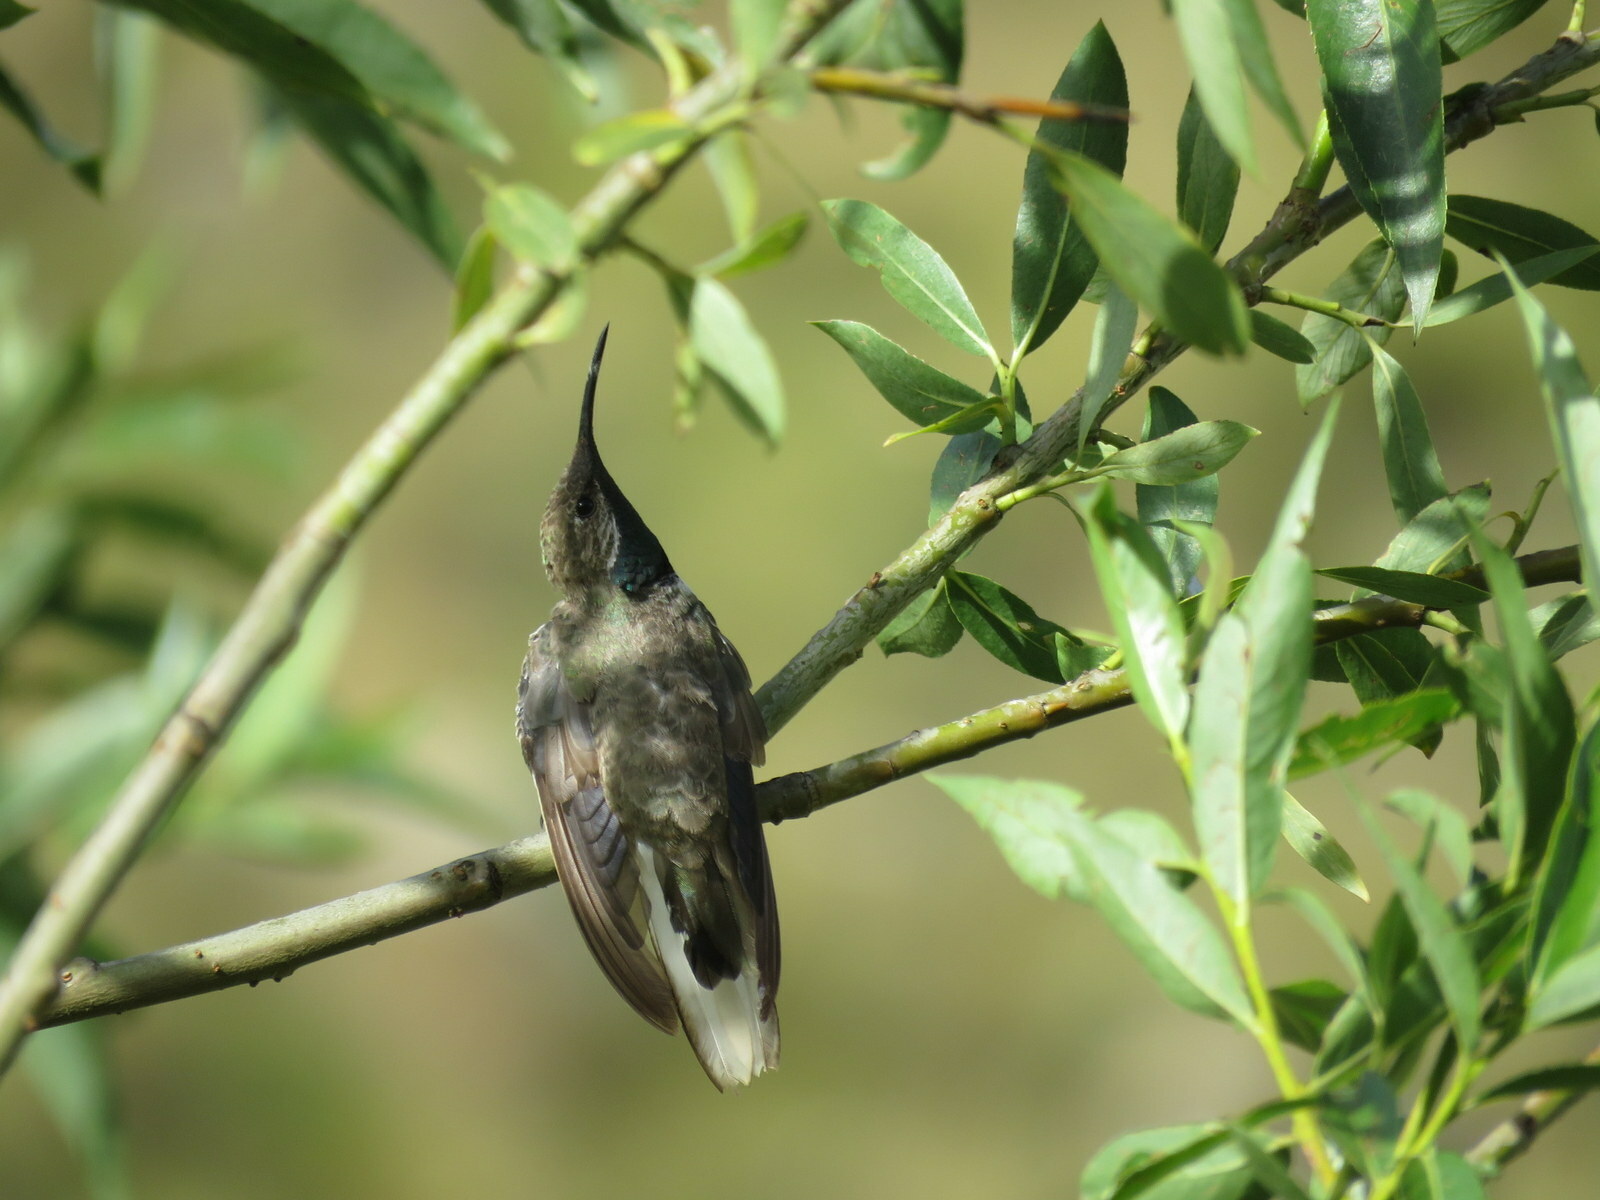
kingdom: Animalia
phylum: Chordata
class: Aves
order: Apodiformes
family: Trochilidae
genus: Oreotrochilus
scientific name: Oreotrochilus estella
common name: Andean hillstar
